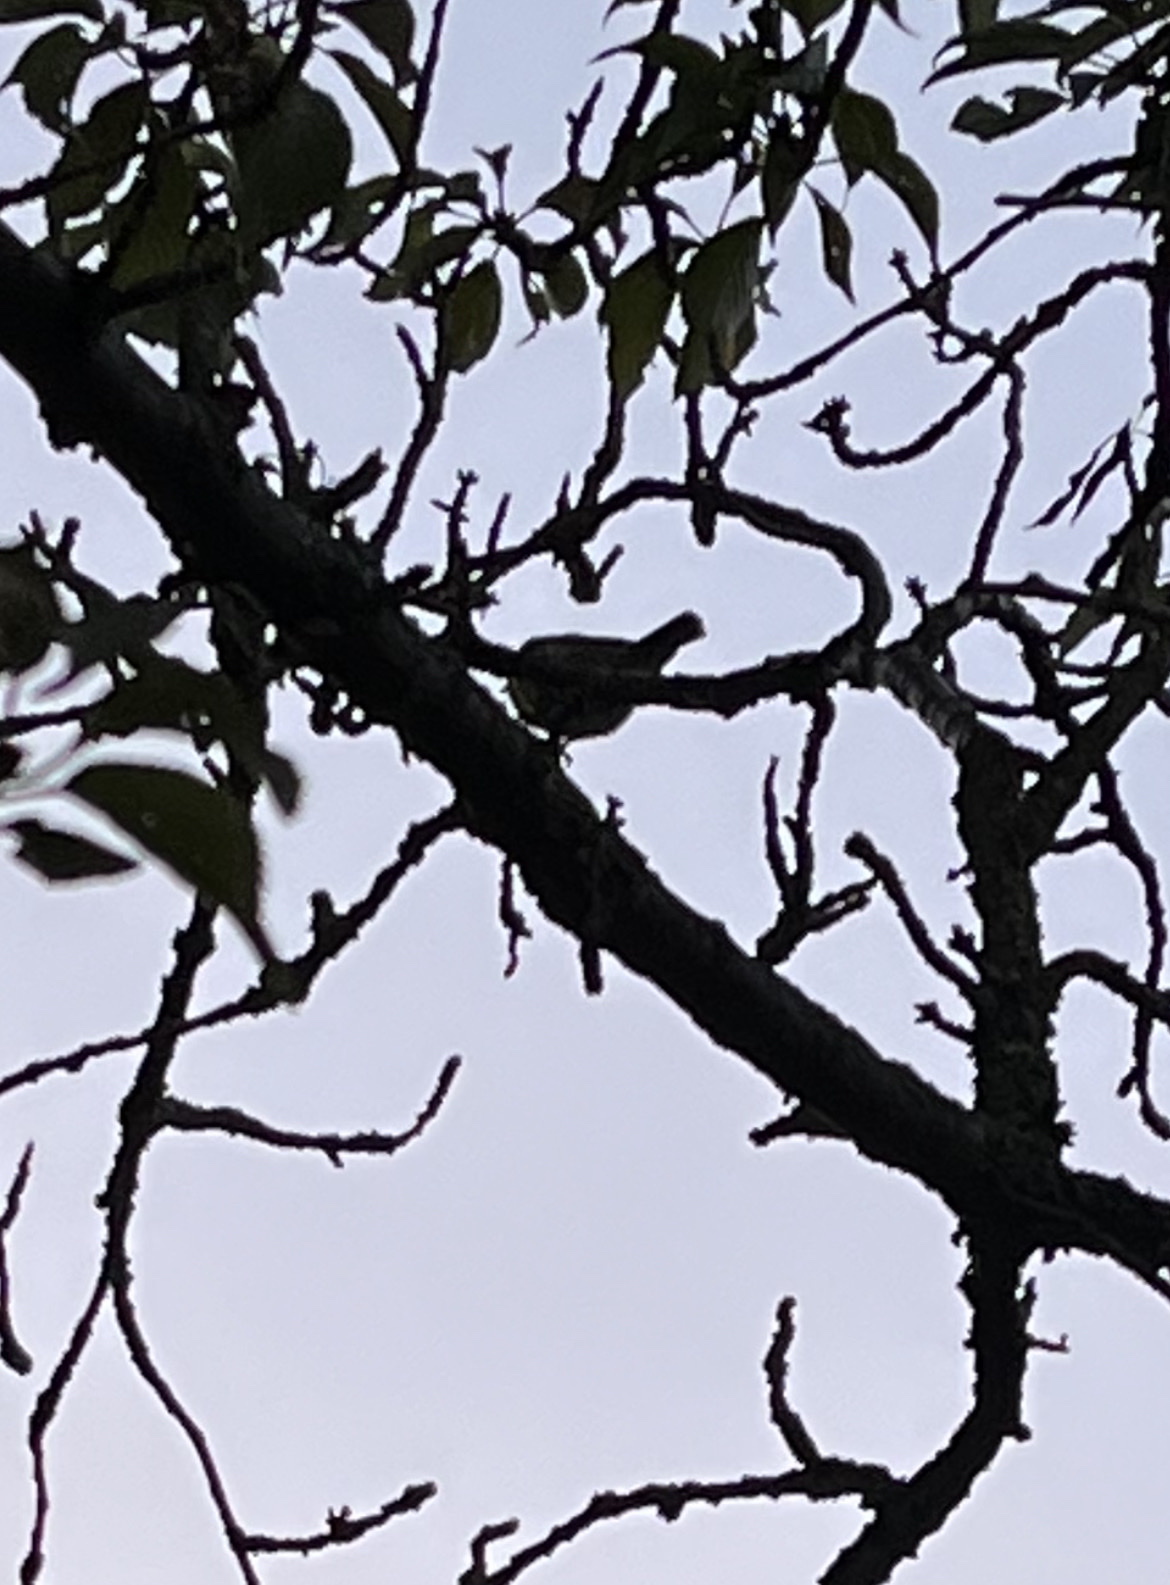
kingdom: Animalia
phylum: Chordata
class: Aves
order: Passeriformes
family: Paridae
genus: Cyanistes
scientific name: Cyanistes caeruleus
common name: Eurasian blue tit
